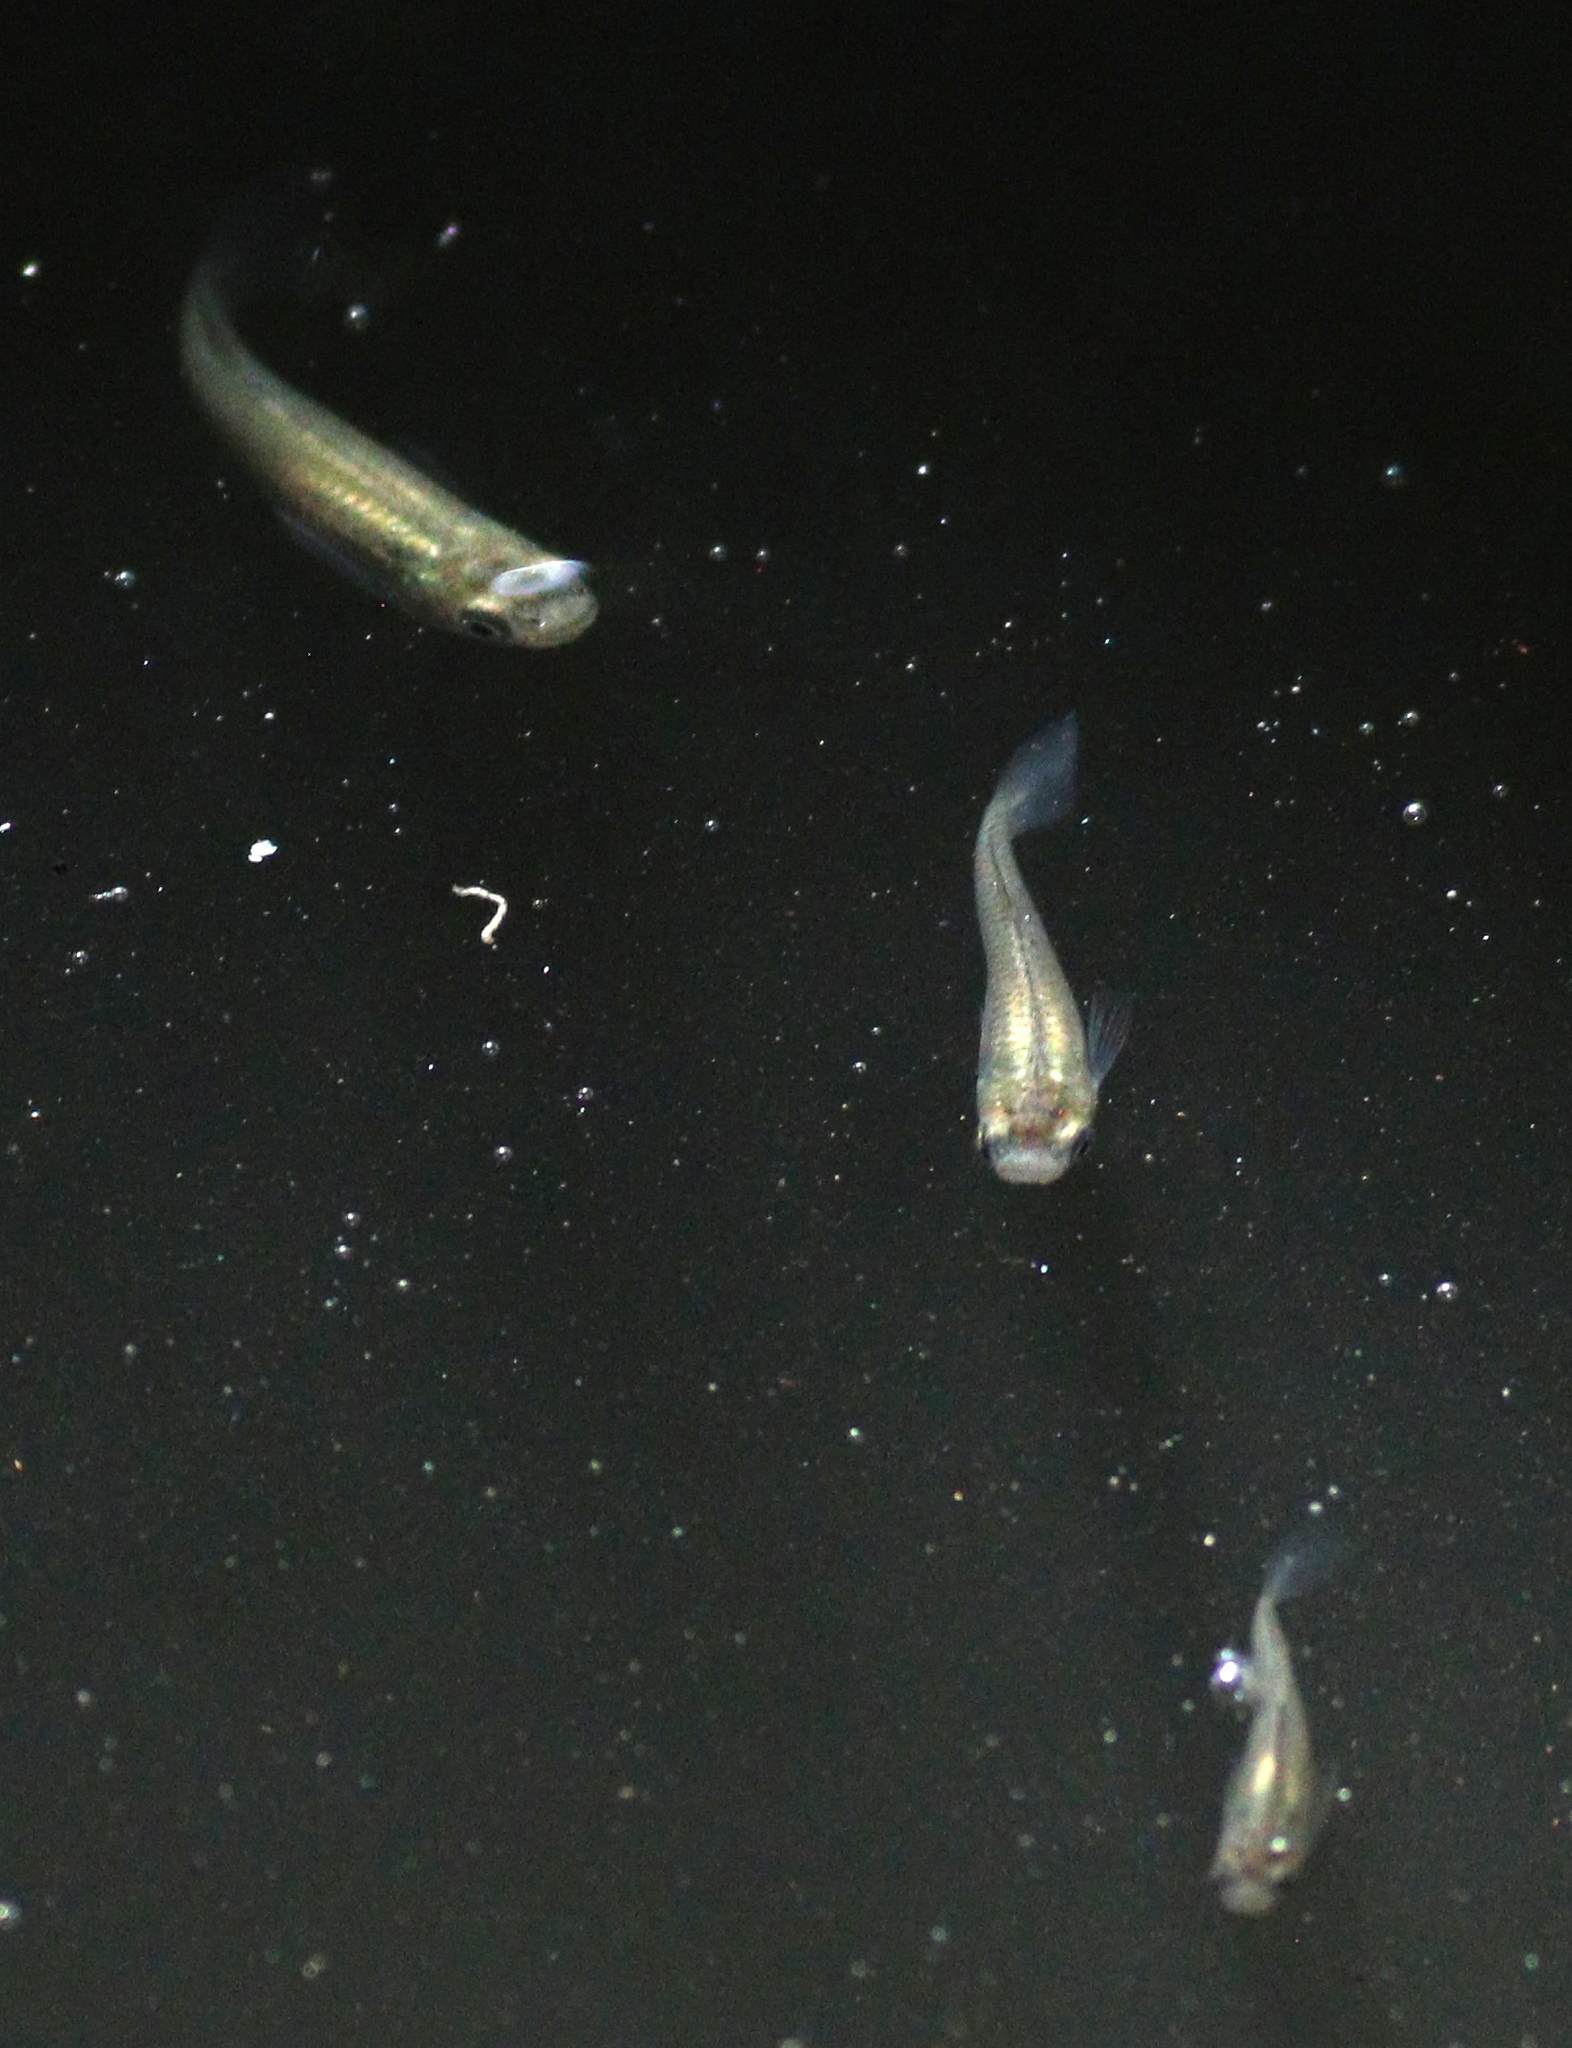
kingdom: Animalia
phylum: Chordata
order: Cyprinodontiformes
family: Poeciliidae
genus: Gambusia
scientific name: Gambusia affinis
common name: Mosquitofish
